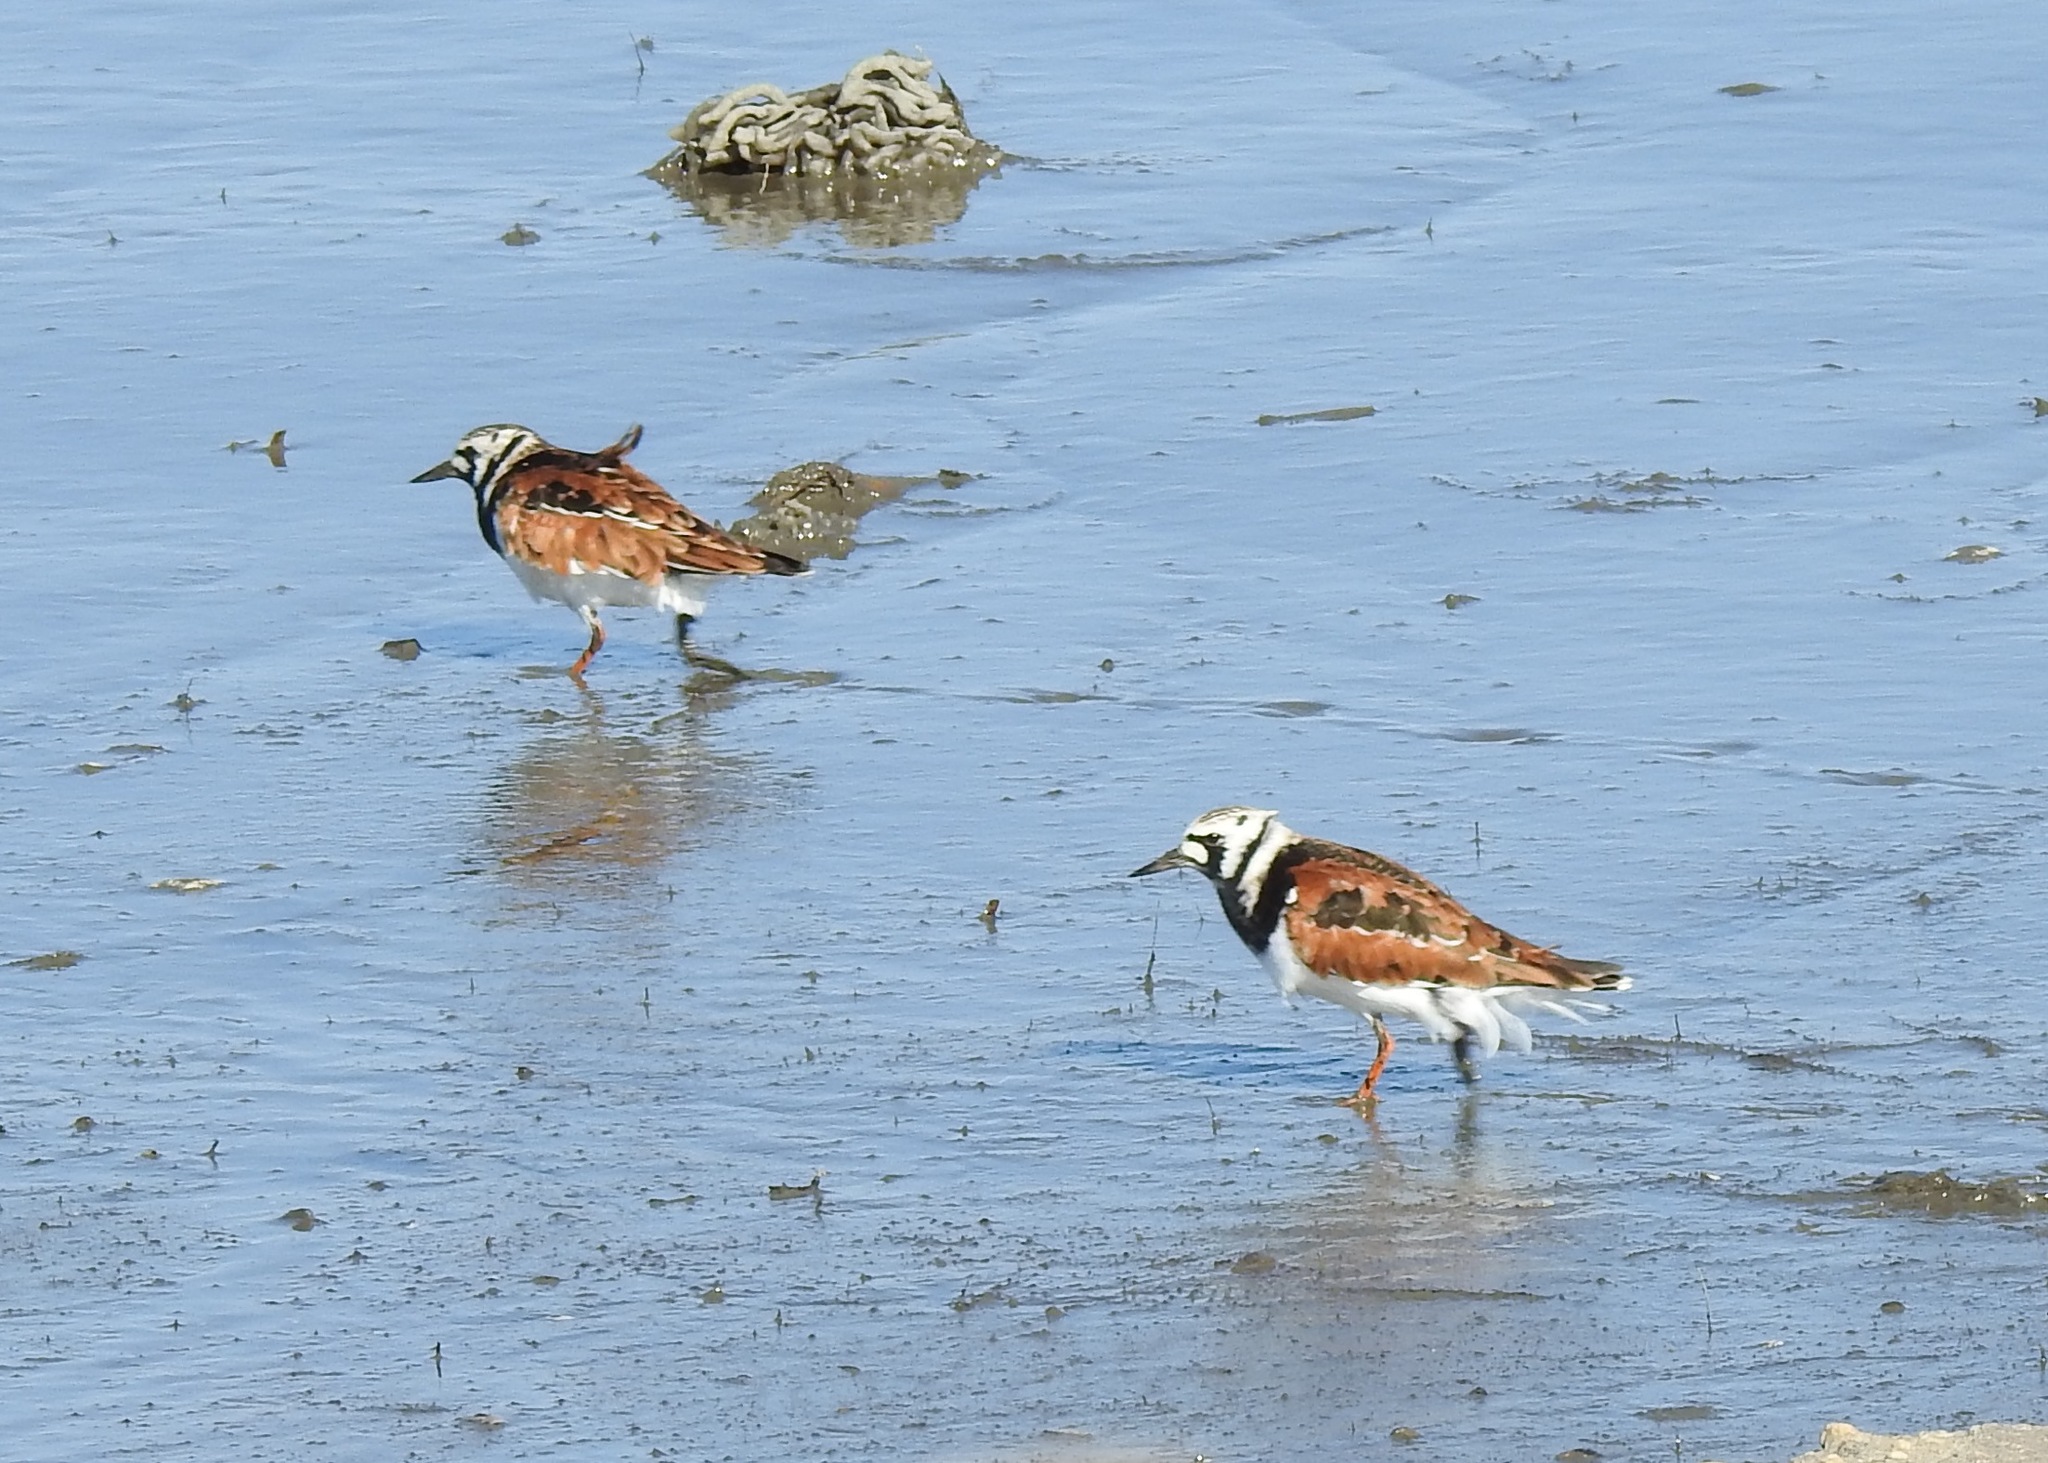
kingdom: Animalia
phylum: Chordata
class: Aves
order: Charadriiformes
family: Scolopacidae
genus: Arenaria
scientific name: Arenaria interpres
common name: Ruddy turnstone
